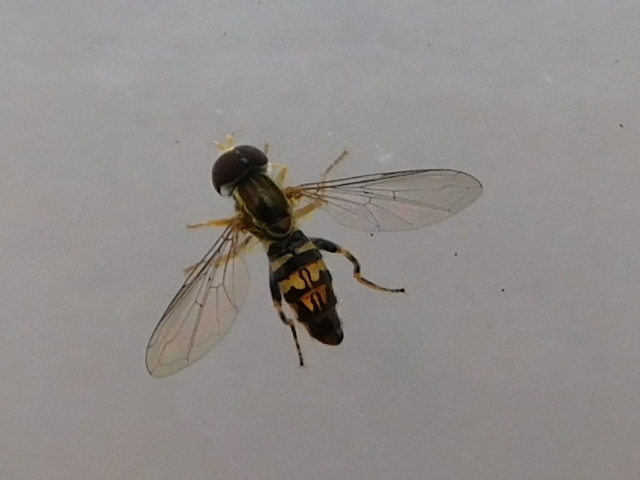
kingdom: Animalia
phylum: Arthropoda
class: Insecta
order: Diptera
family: Syrphidae
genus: Toxomerus
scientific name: Toxomerus geminatus
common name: Eastern calligrapher
